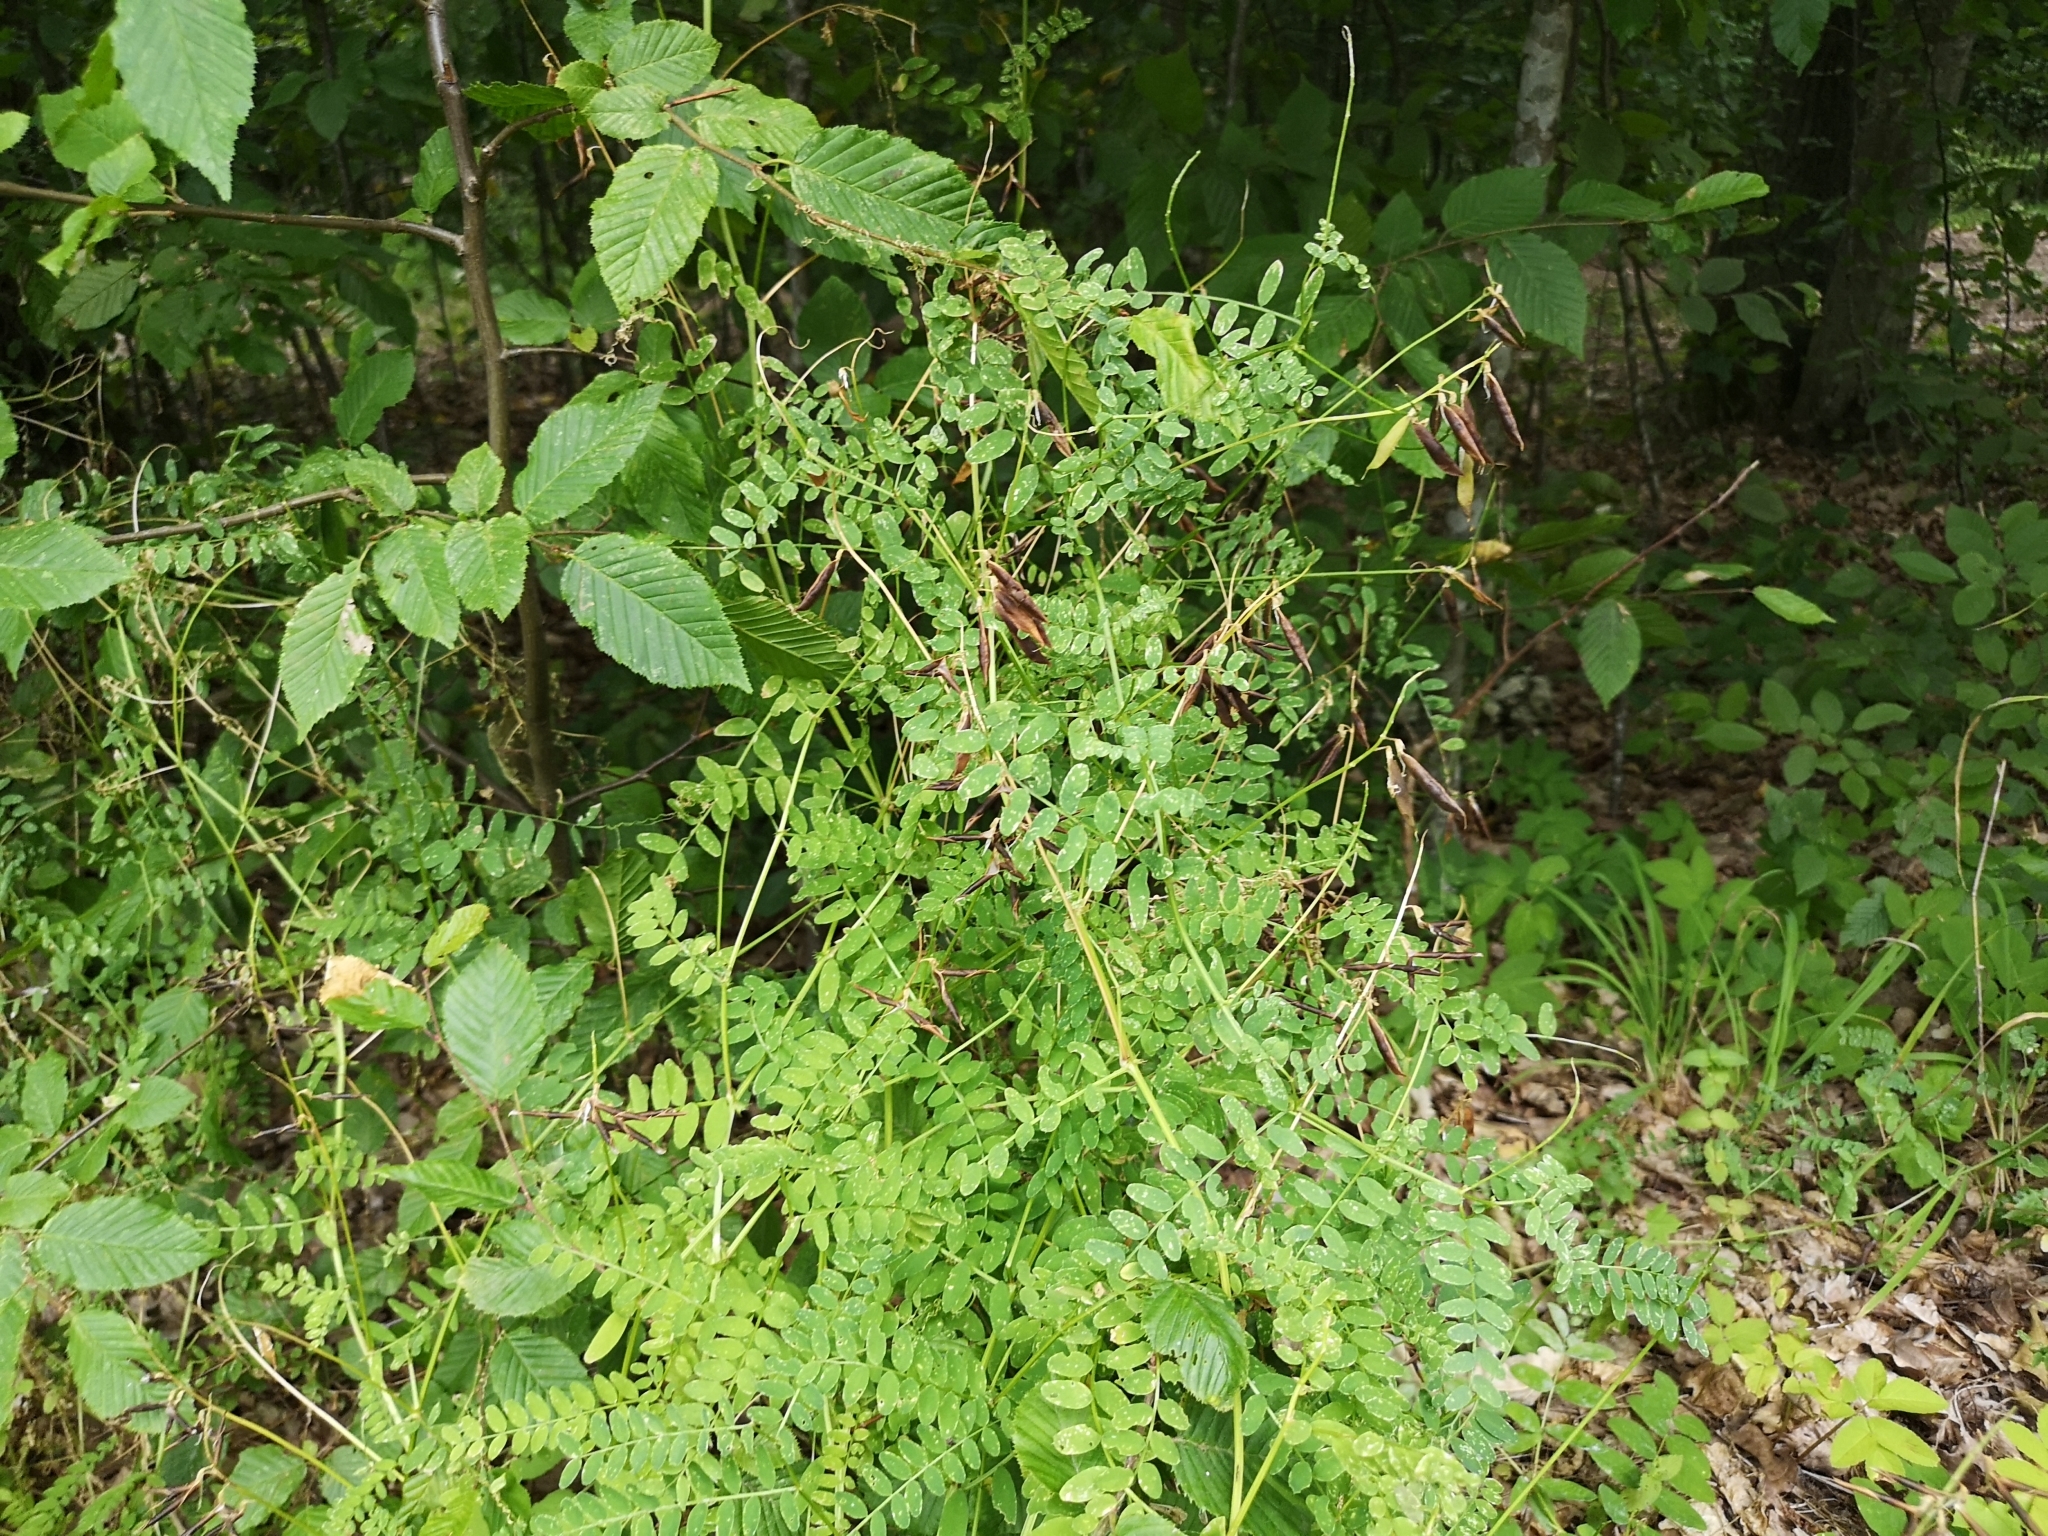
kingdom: Plantae
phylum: Tracheophyta
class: Magnoliopsida
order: Fabales
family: Fabaceae
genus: Vicia
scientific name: Vicia sylvatica
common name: Wood vetch
